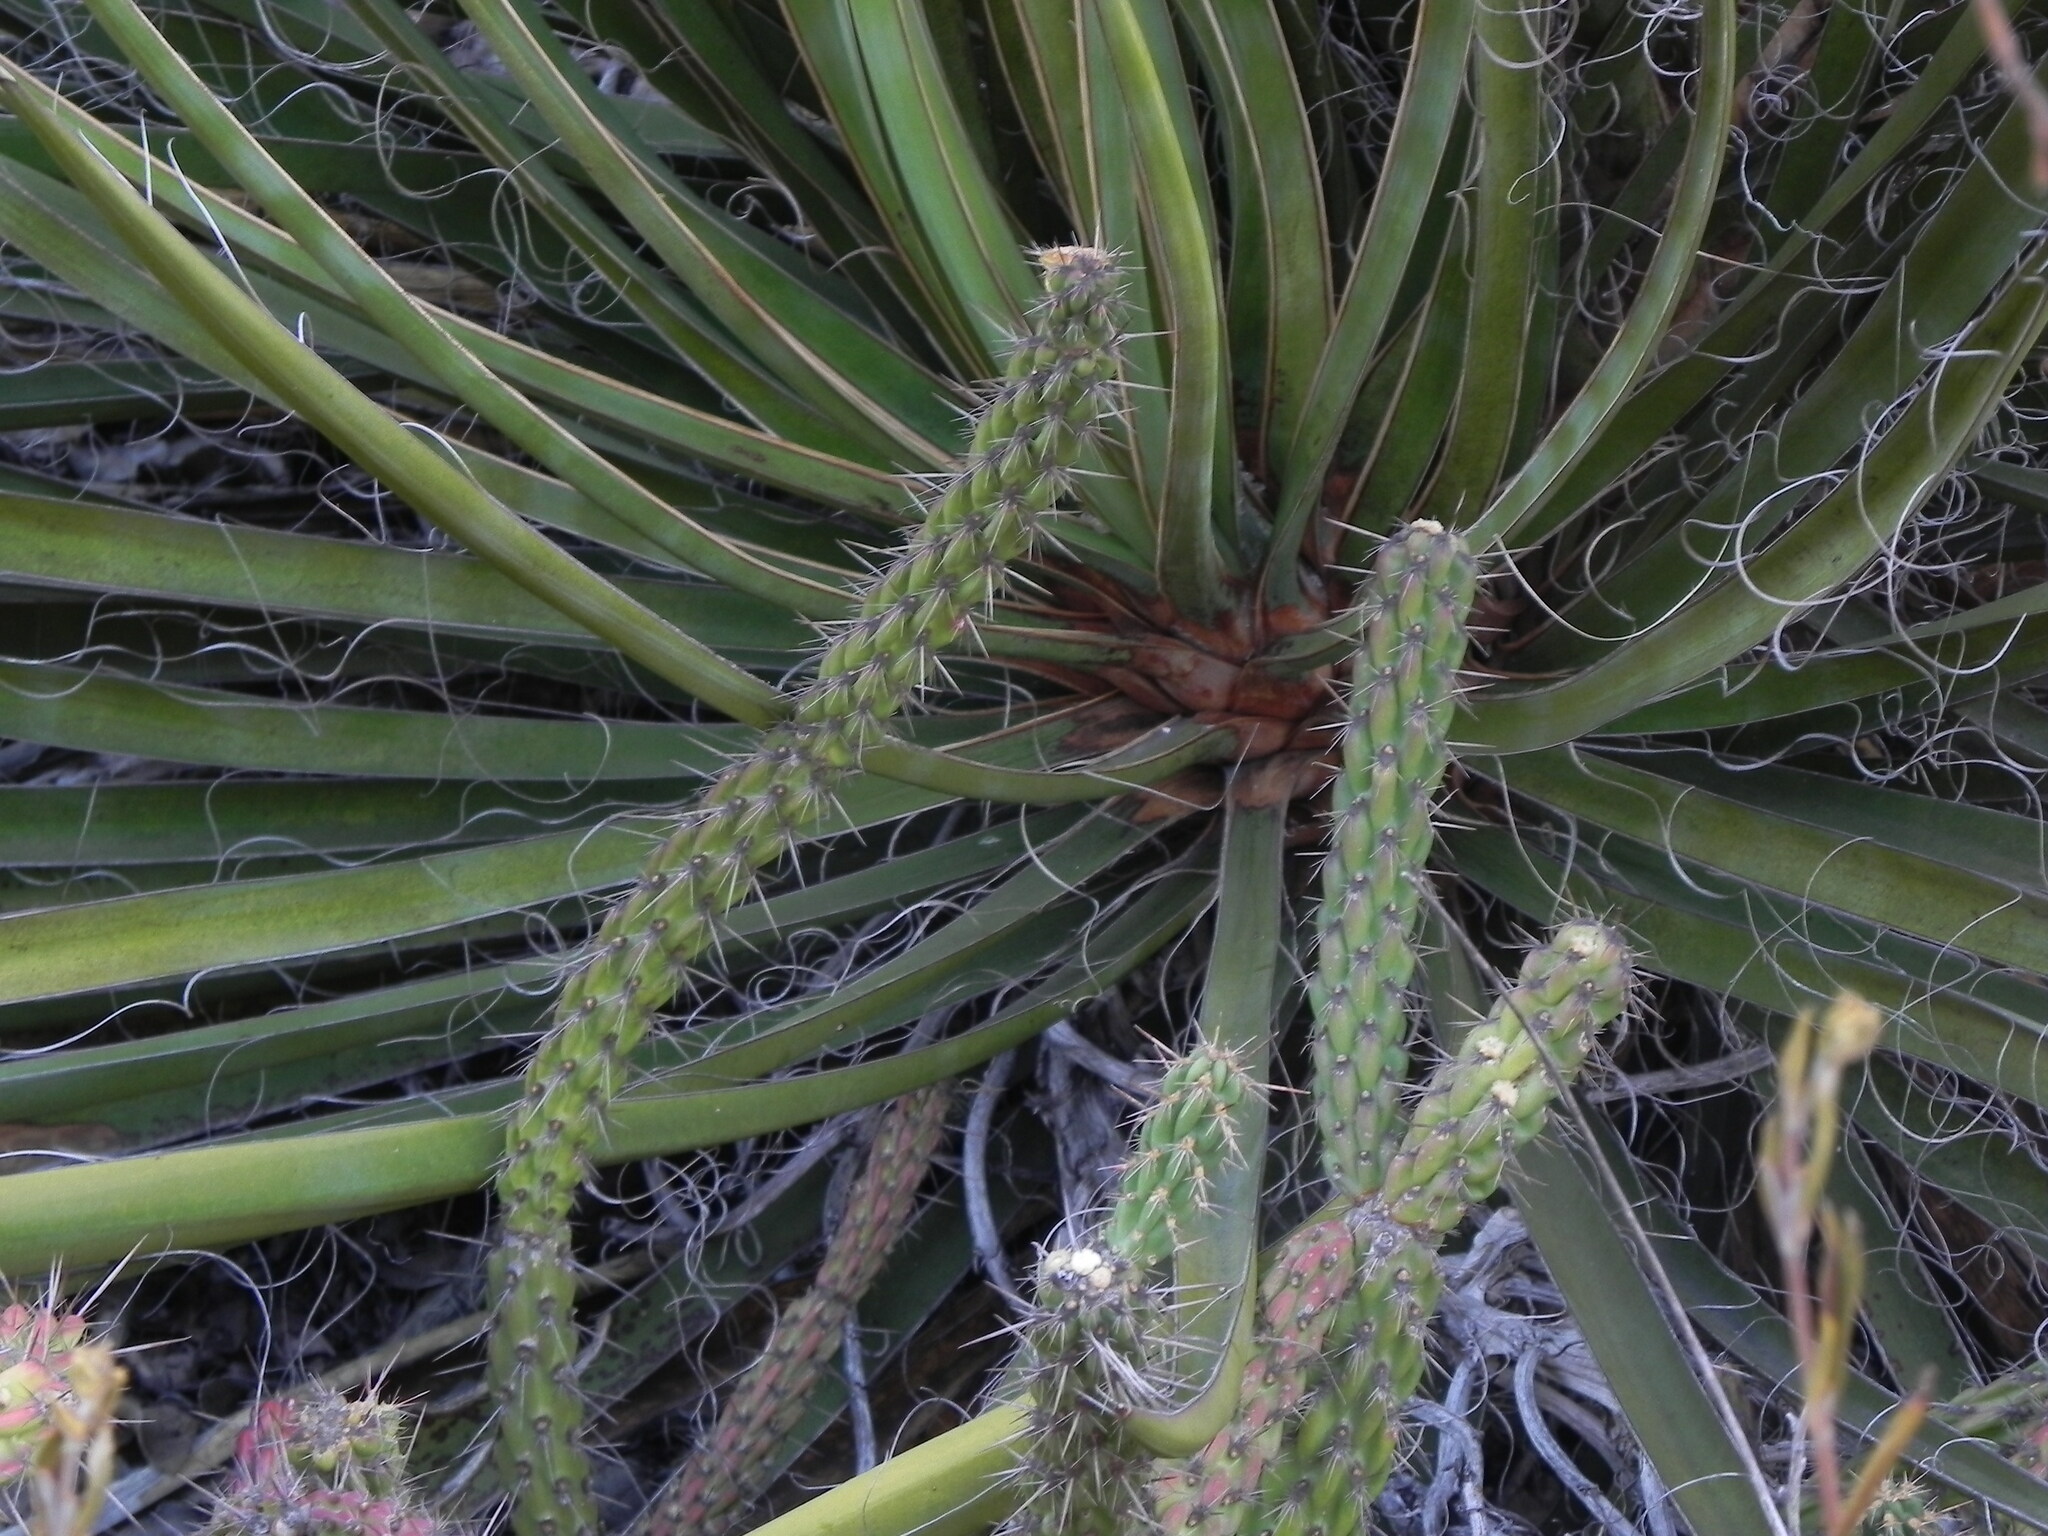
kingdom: Plantae
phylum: Tracheophyta
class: Magnoliopsida
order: Caryophyllales
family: Cactaceae
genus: Cylindropuntia
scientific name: Cylindropuntia californica
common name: Snake cholla
